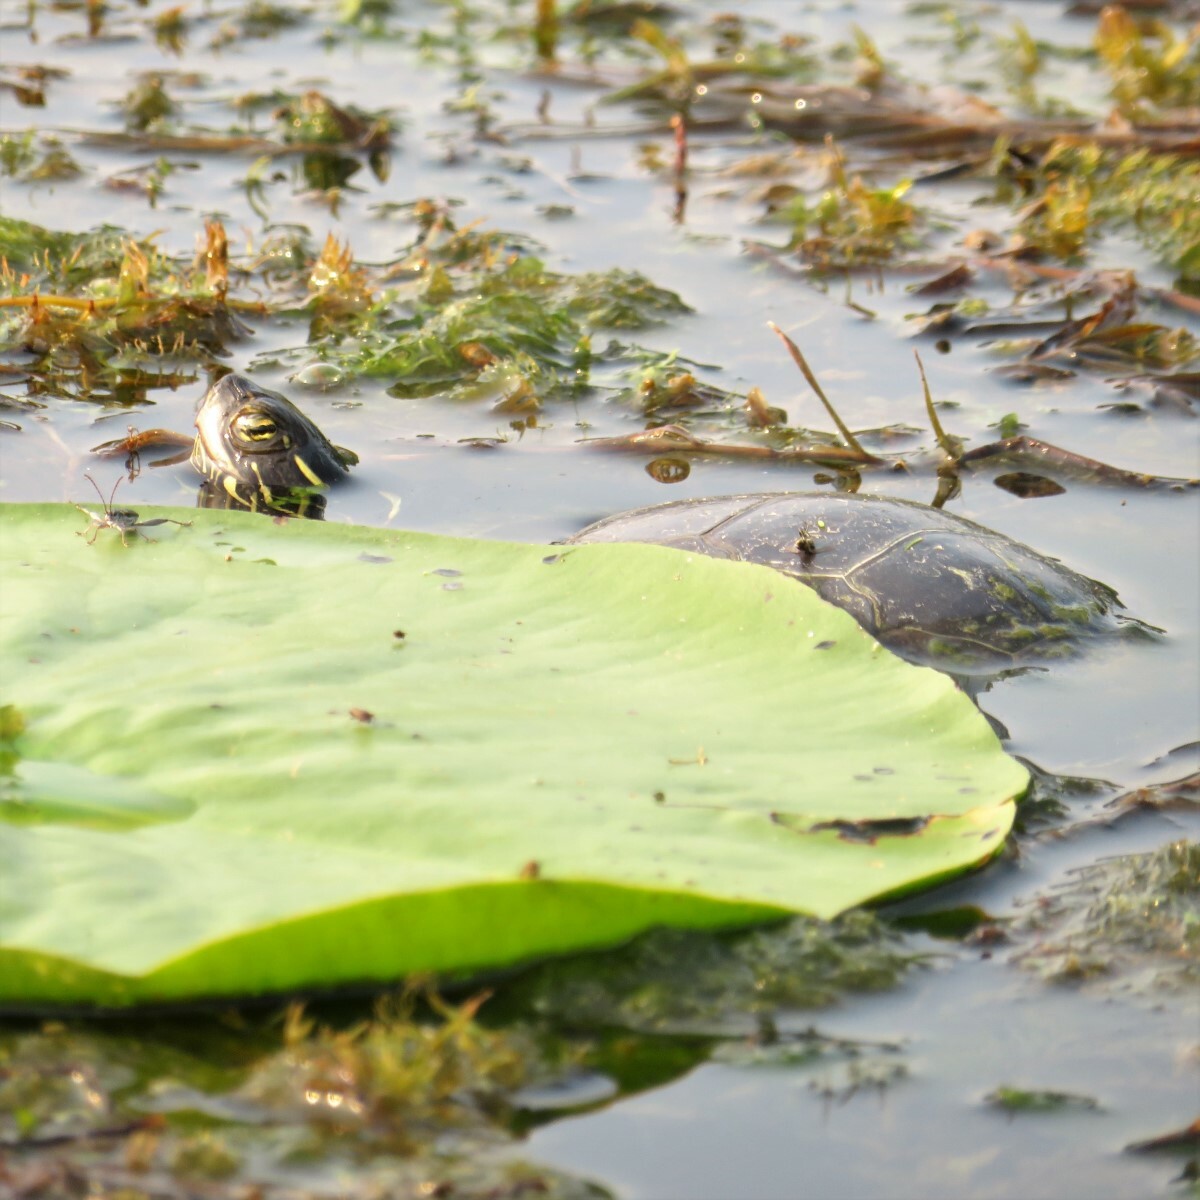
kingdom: Animalia
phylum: Chordata
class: Testudines
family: Emydidae
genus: Chrysemys
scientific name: Chrysemys picta
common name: Painted turtle
